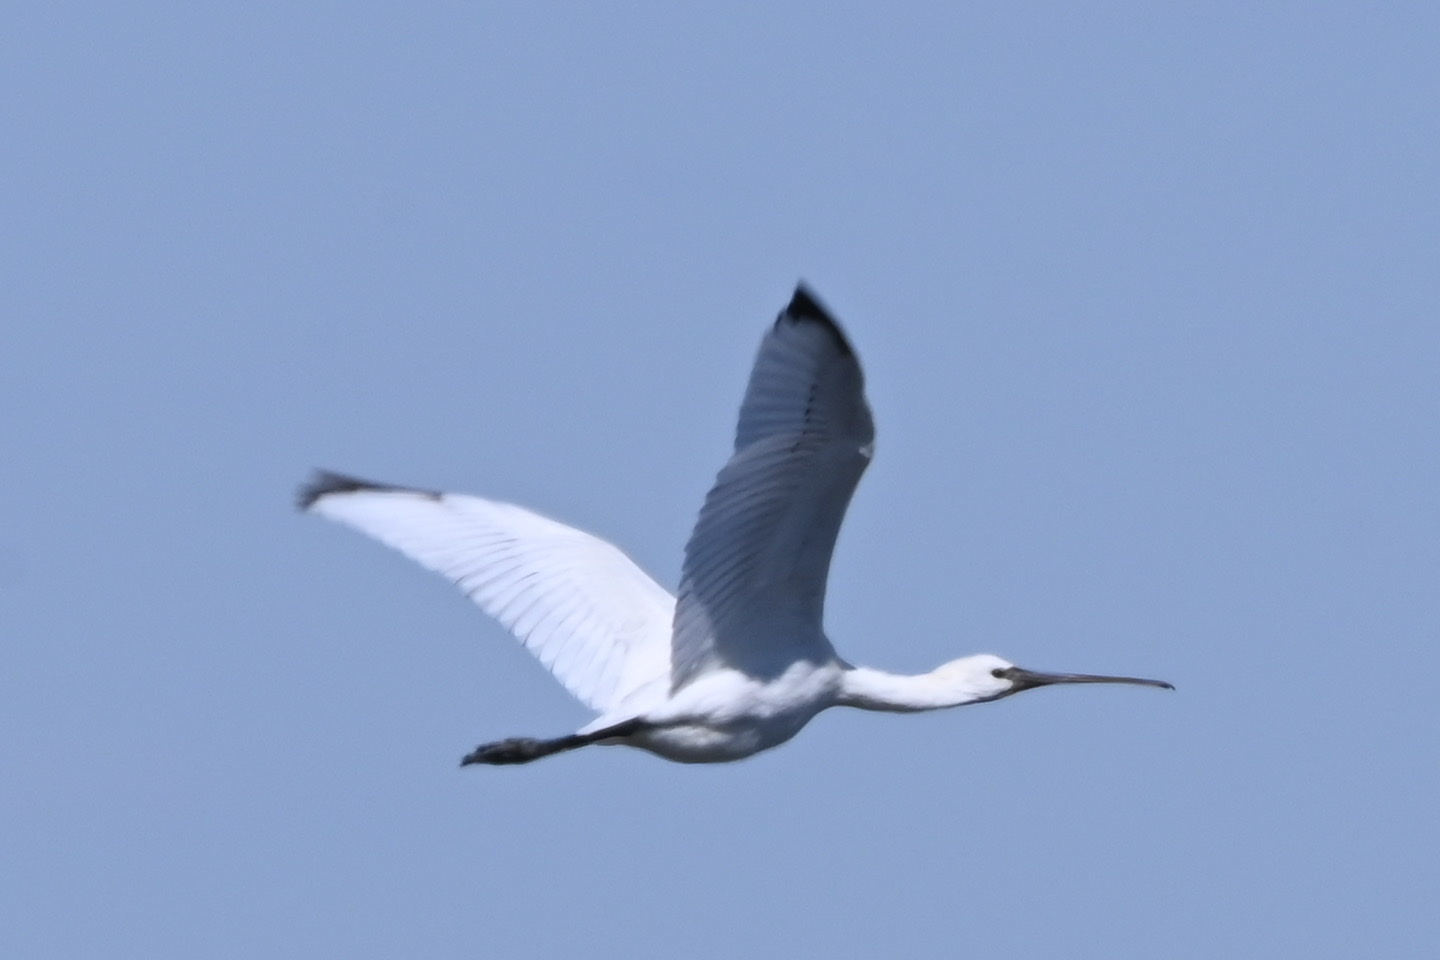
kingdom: Animalia
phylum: Chordata
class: Aves
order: Pelecaniformes
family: Threskiornithidae
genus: Platalea
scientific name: Platalea leucorodia
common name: Eurasian spoonbill
